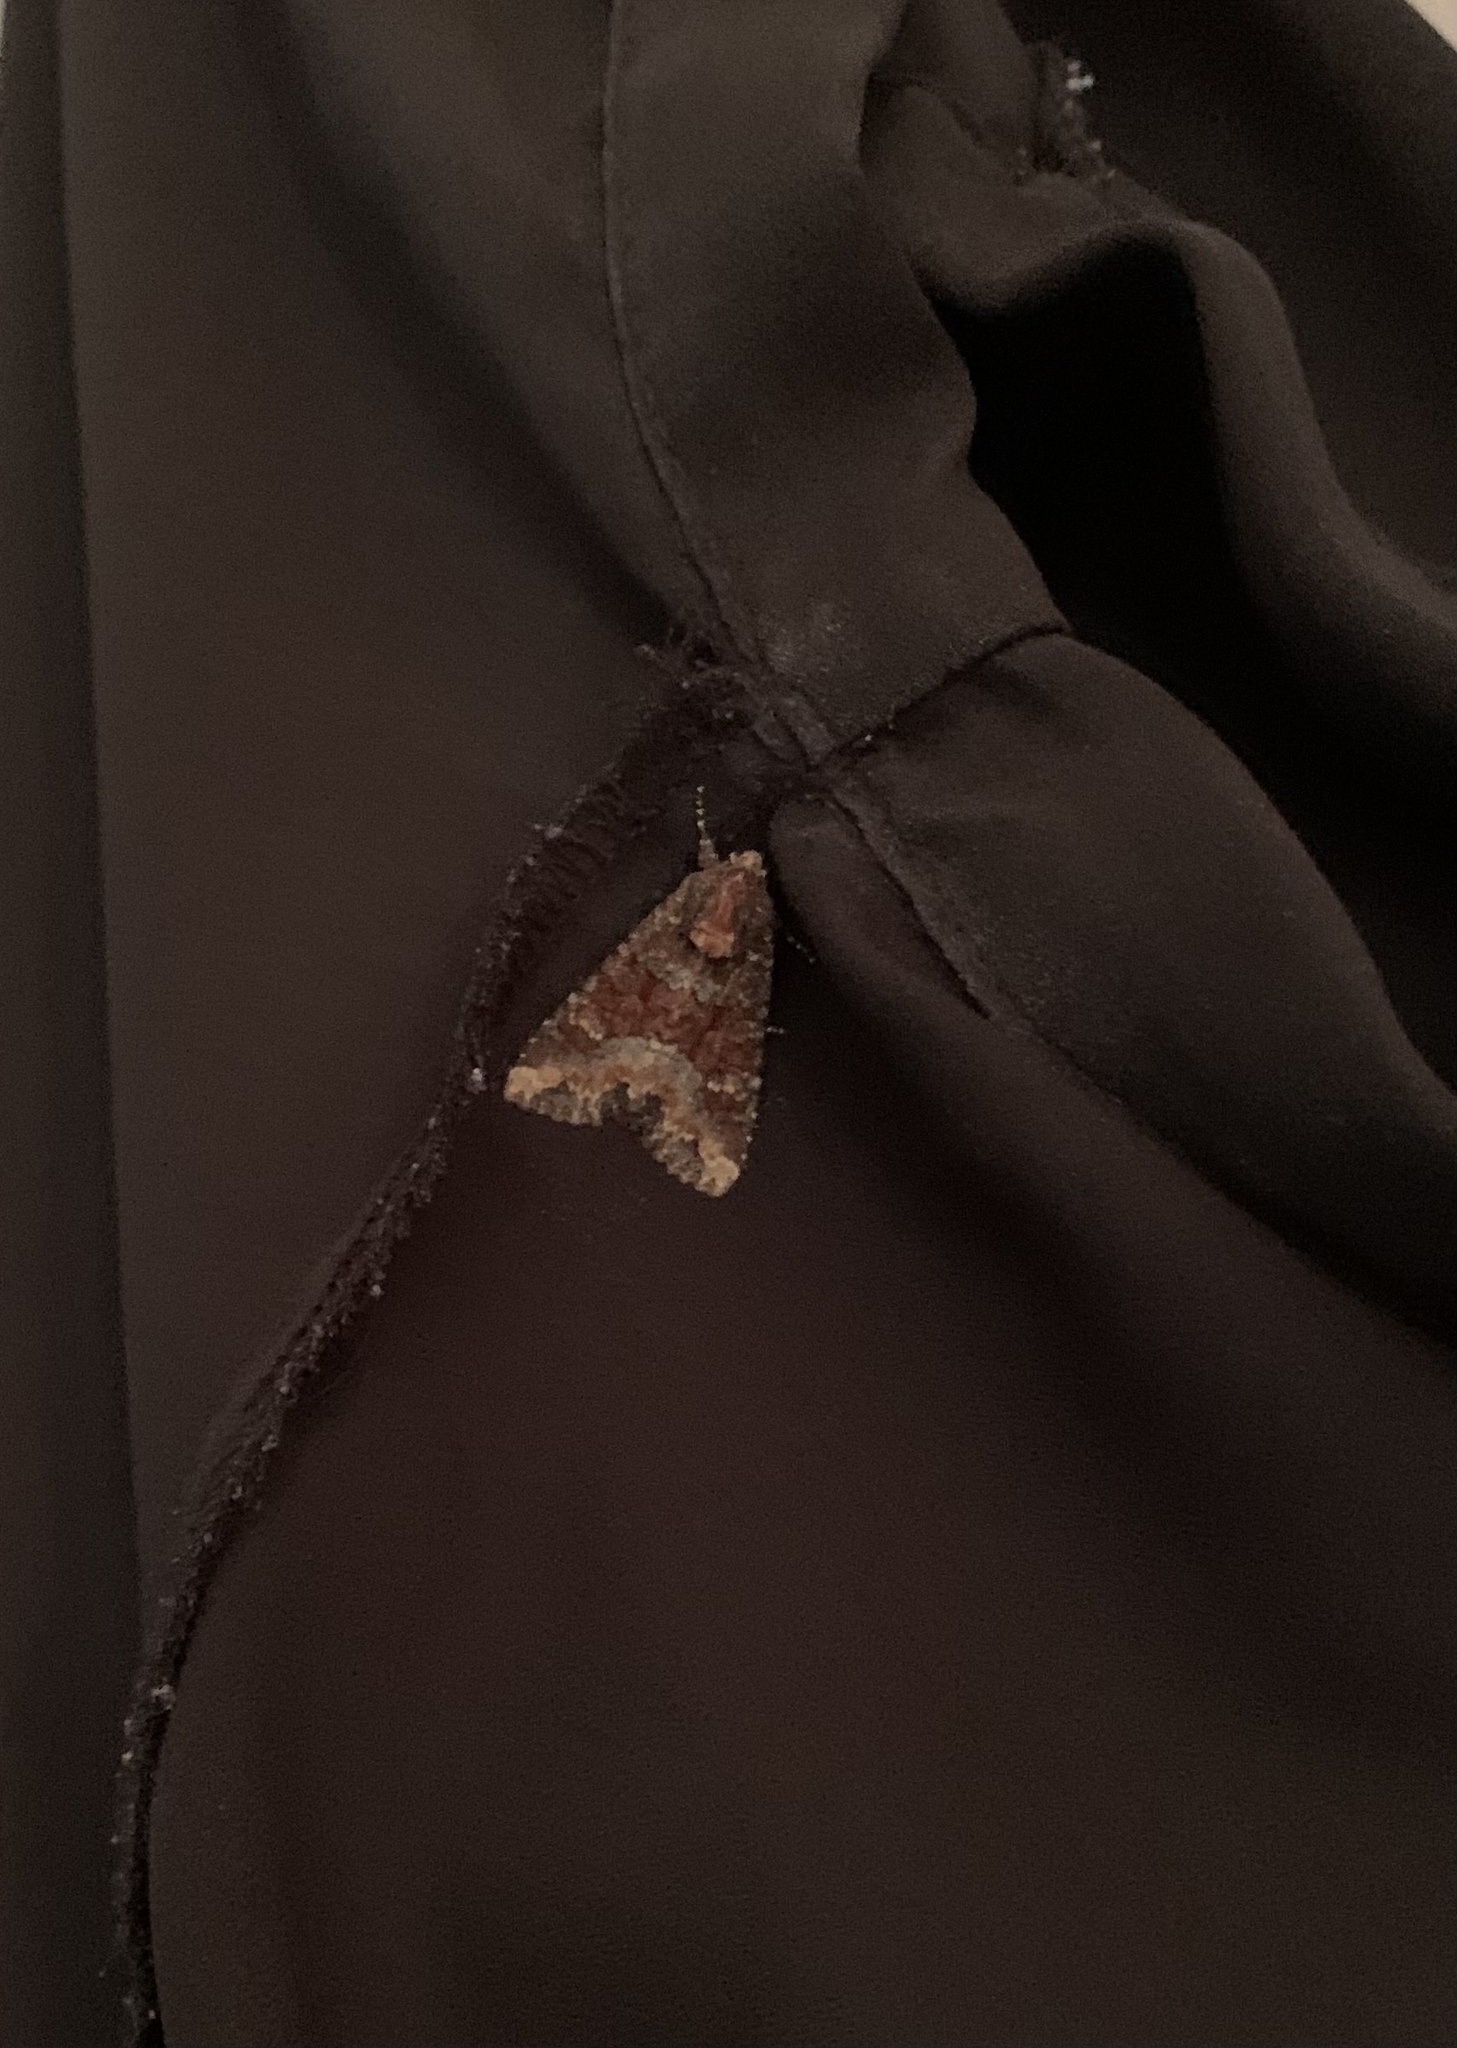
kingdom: Animalia
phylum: Arthropoda
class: Insecta
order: Lepidoptera
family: Noctuidae
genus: Apamea
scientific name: Apamea amputatrix
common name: Yellow-headed cutworm moth
